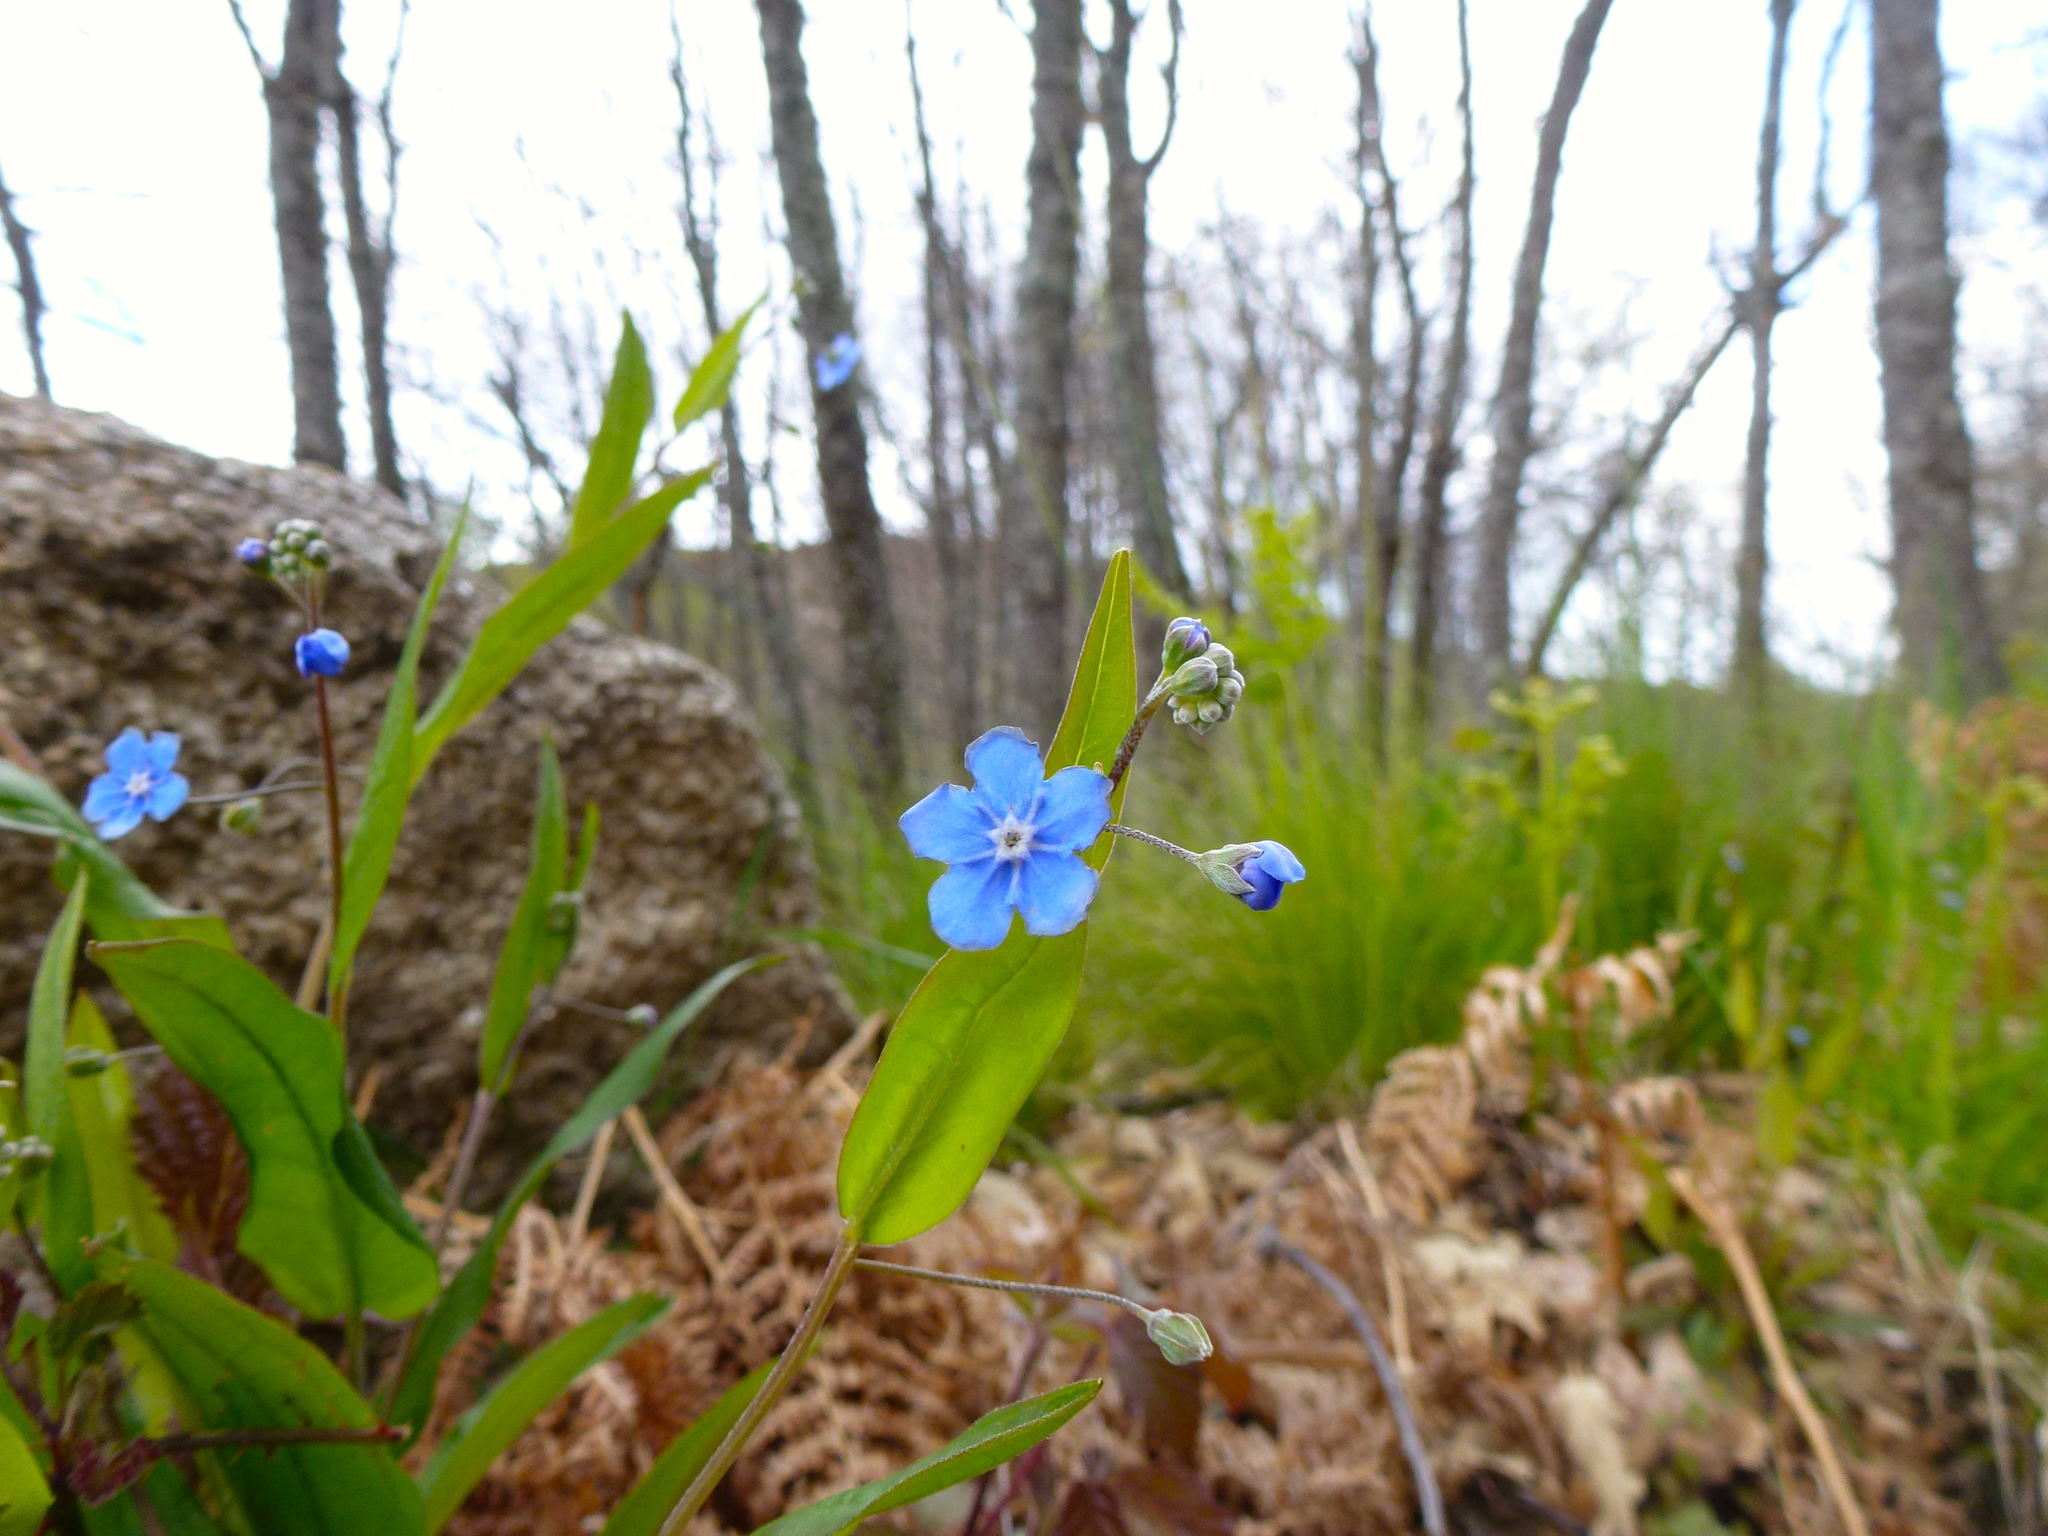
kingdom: Plantae
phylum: Tracheophyta
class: Magnoliopsida
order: Boraginales
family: Boraginaceae
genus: Omphalodes
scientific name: Omphalodes nitida
